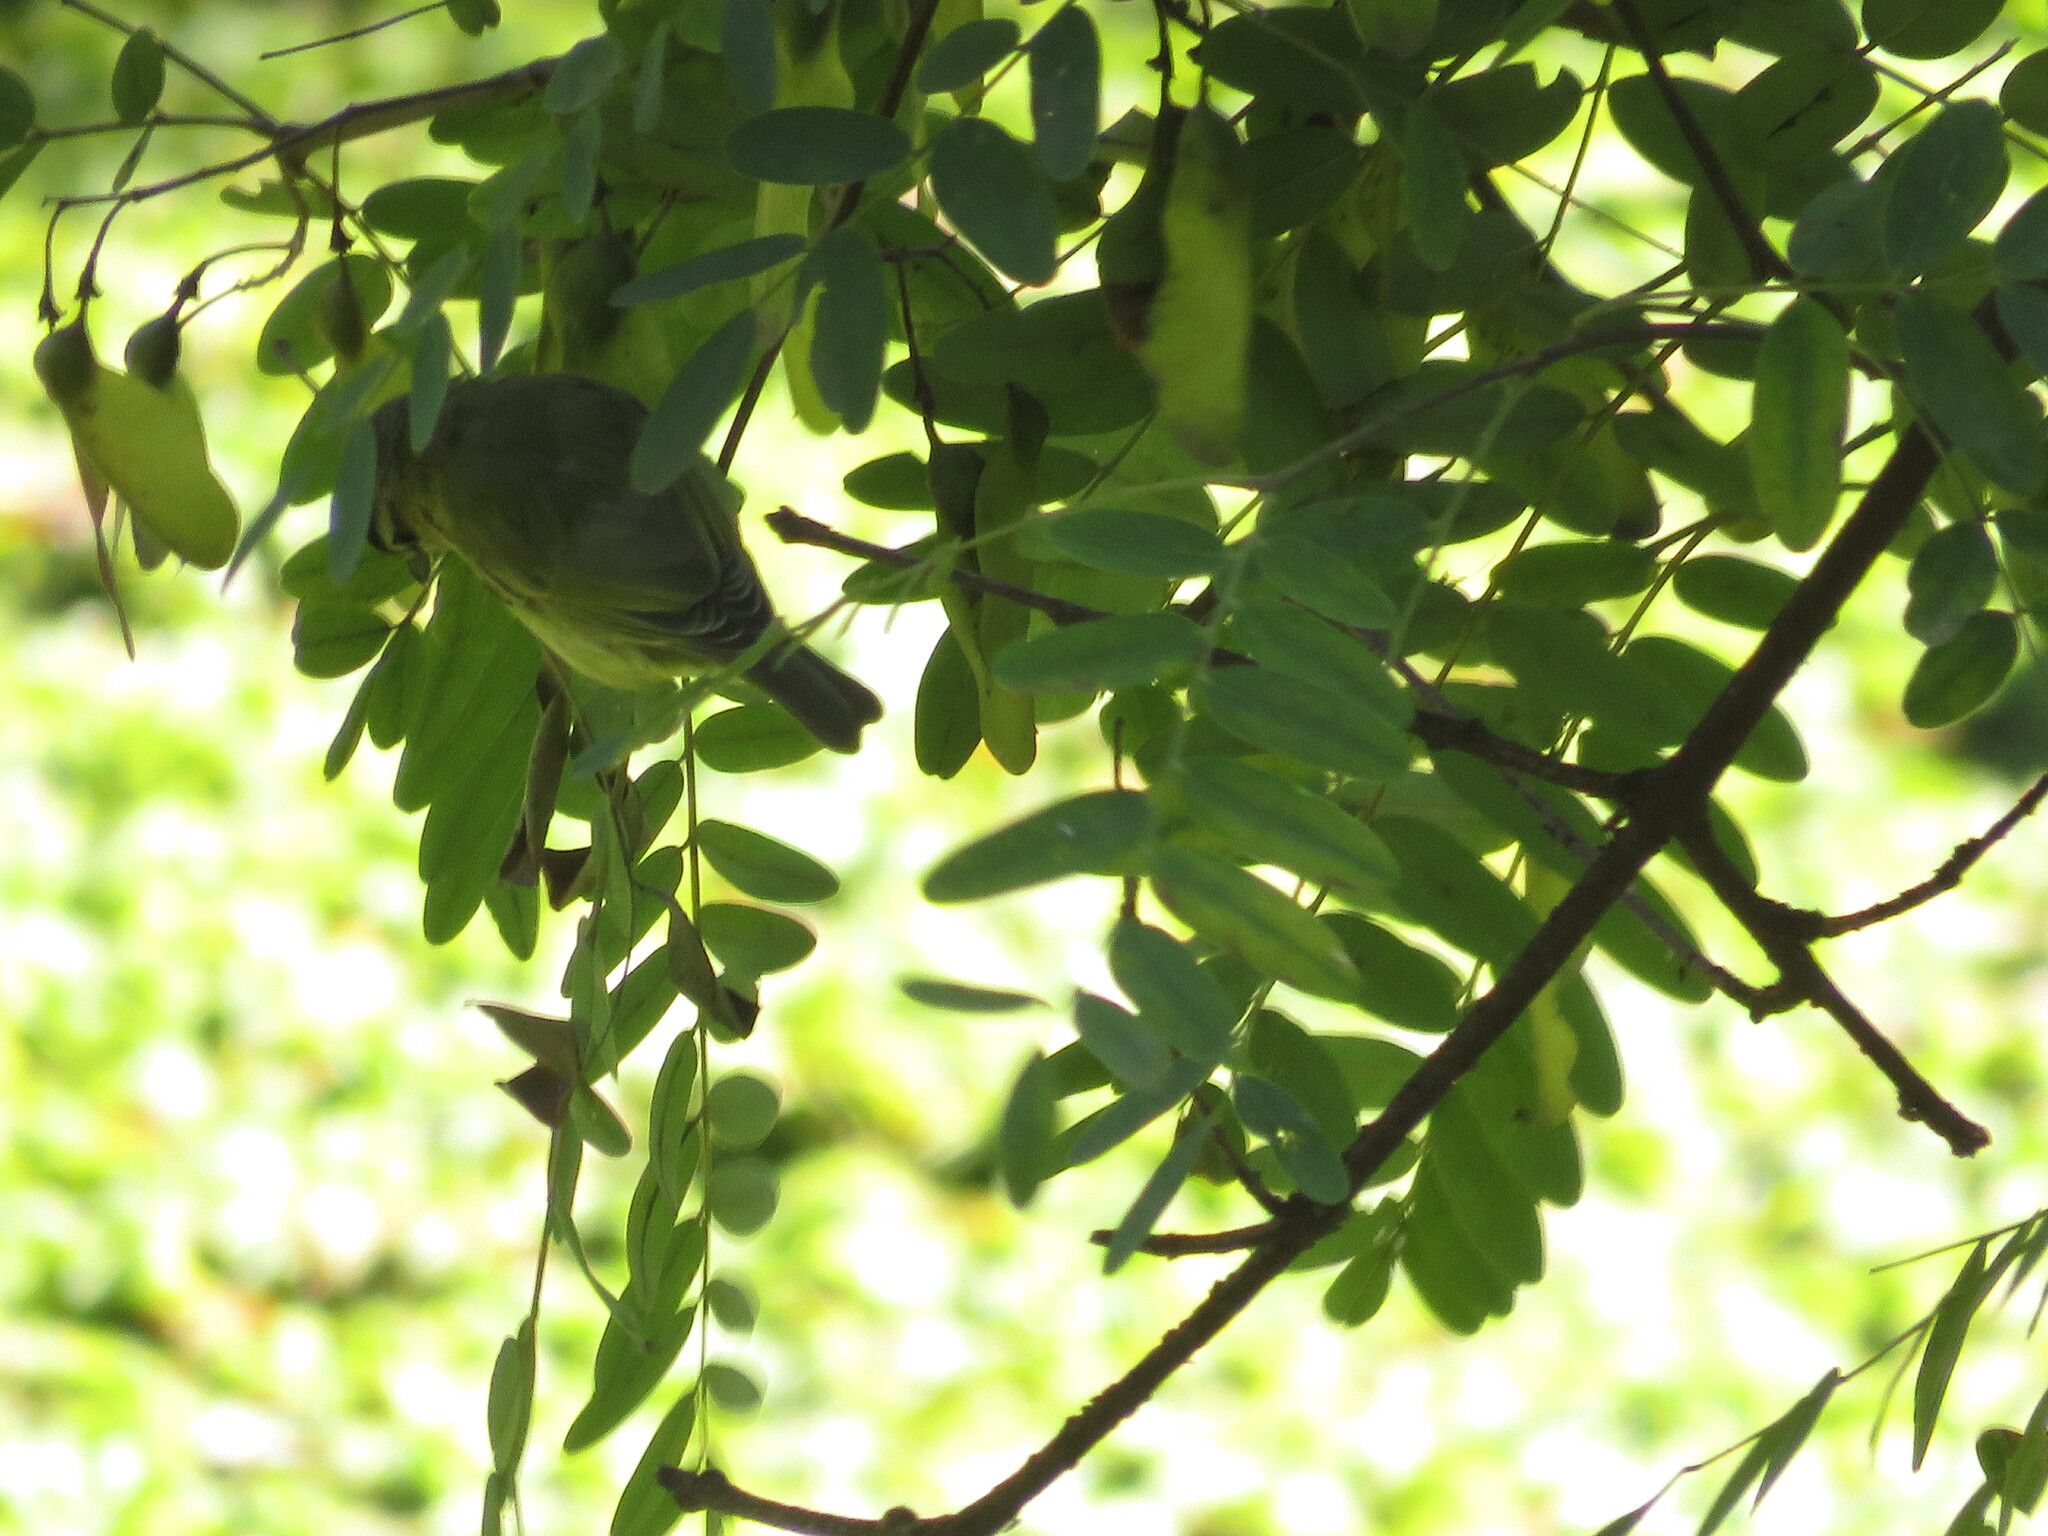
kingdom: Animalia
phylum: Chordata
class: Aves
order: Passeriformes
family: Vireonidae
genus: Vireo
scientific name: Vireo olivaceus
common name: Red-eyed vireo
